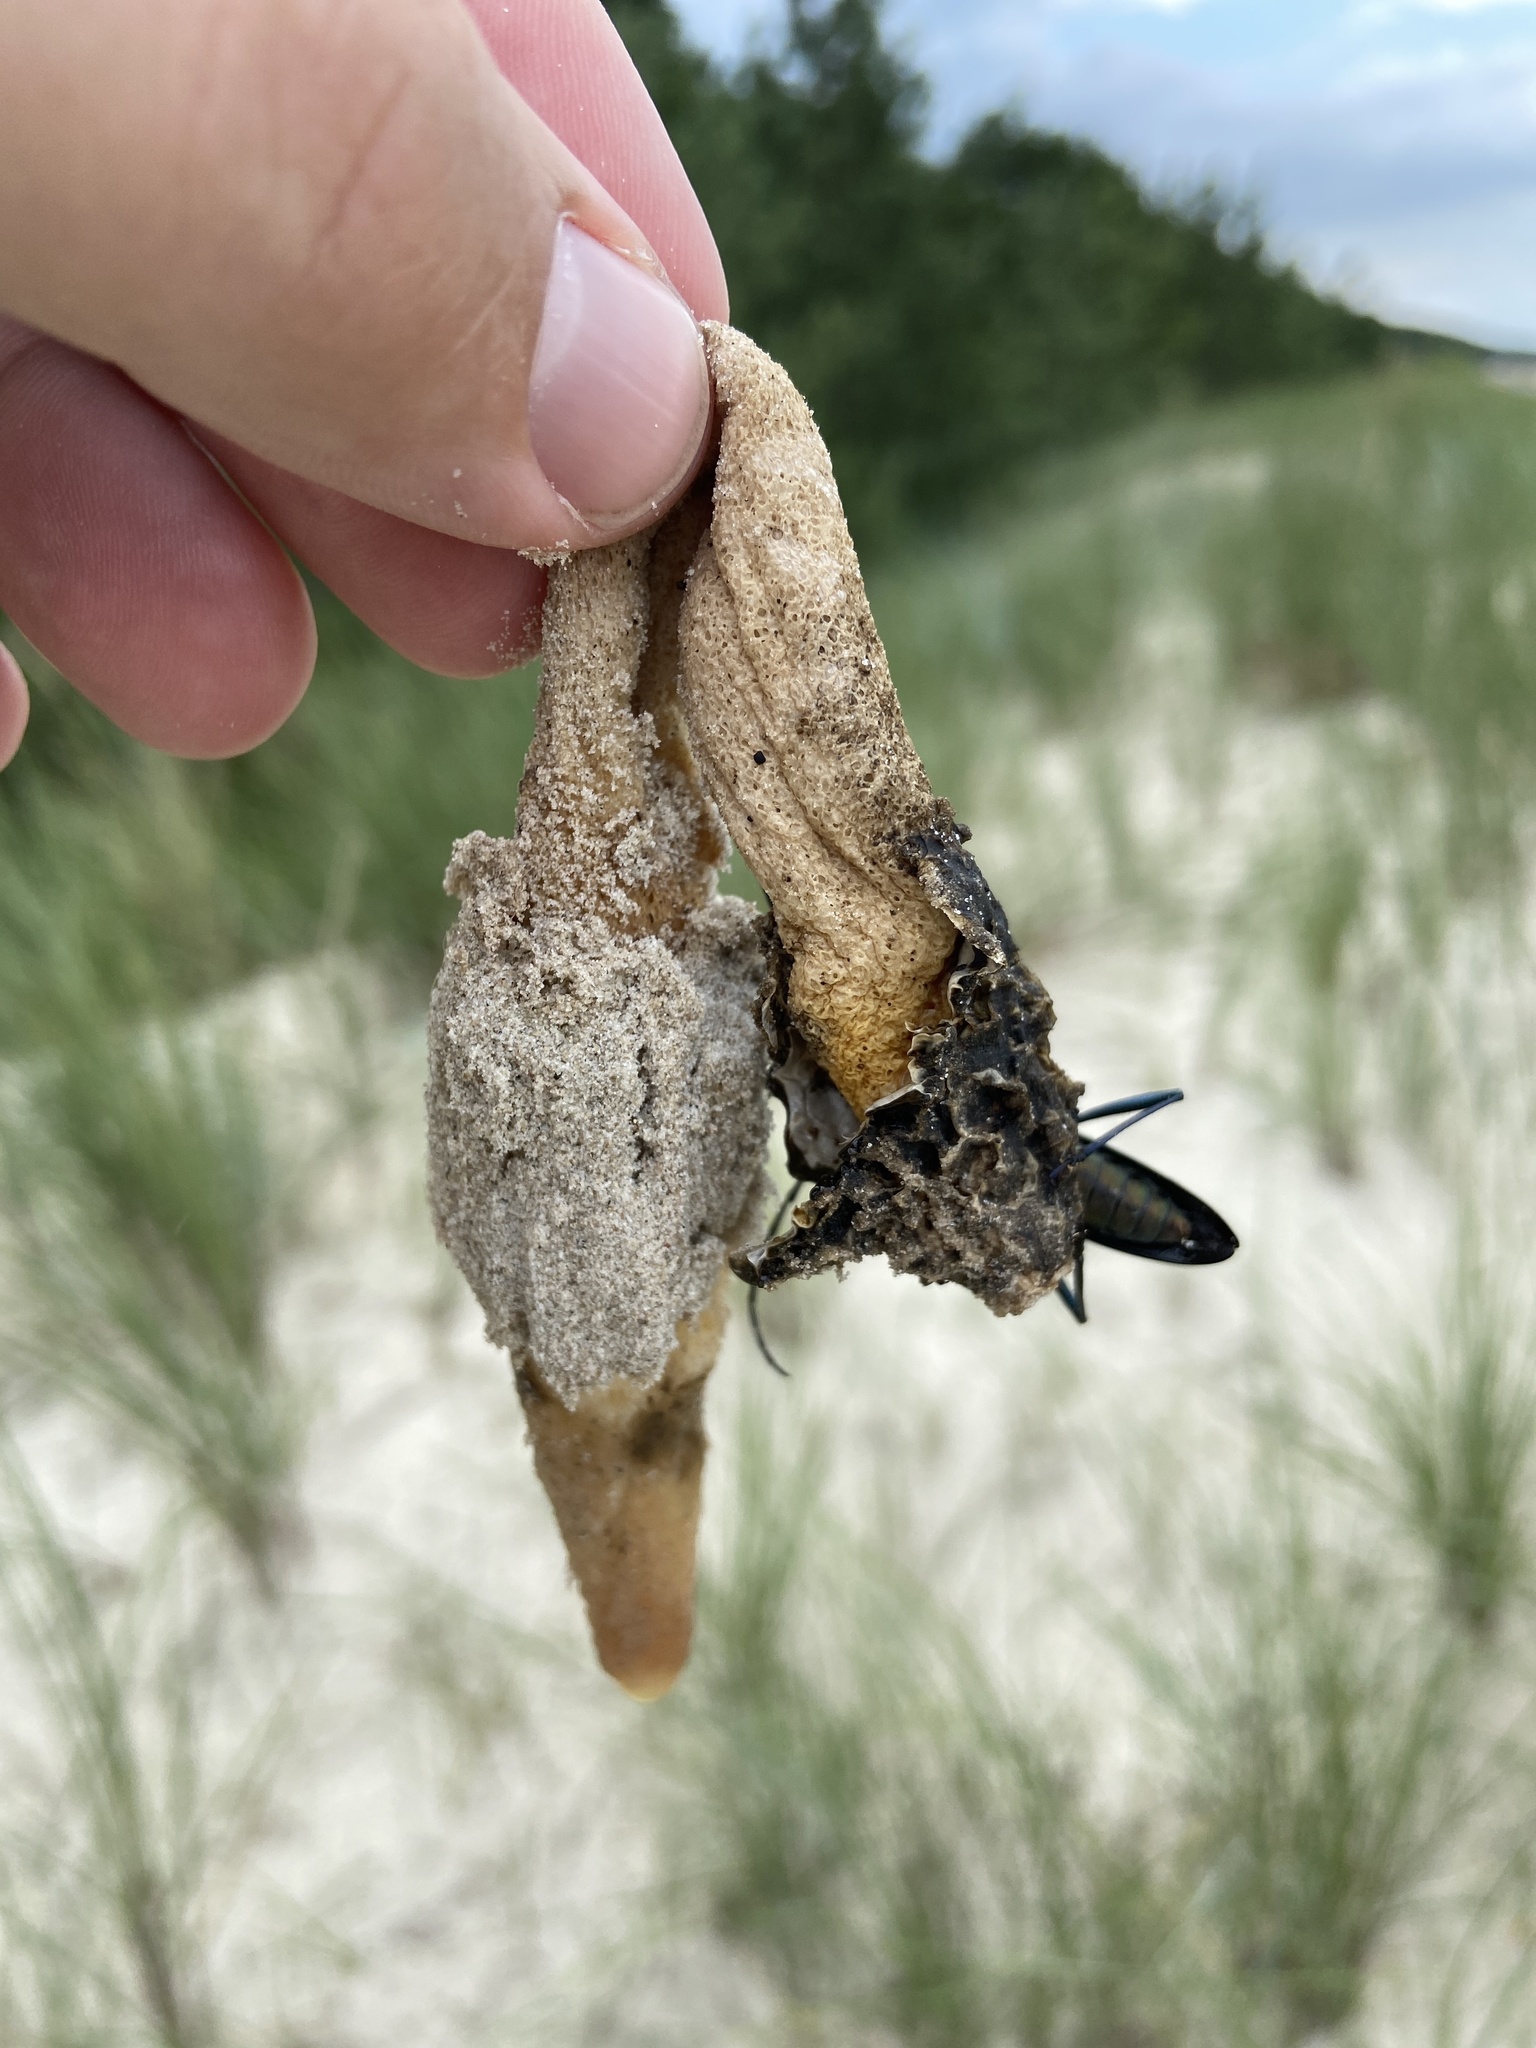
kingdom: Fungi
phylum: Basidiomycota
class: Agaricomycetes
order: Phallales
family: Phallaceae
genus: Phallus
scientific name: Phallus hadriani
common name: Sand stinkhorn
